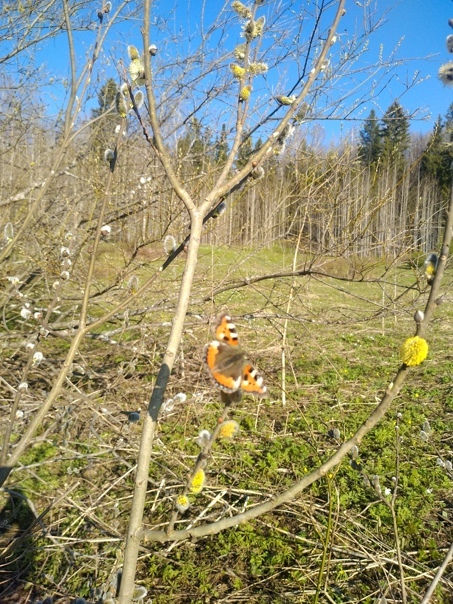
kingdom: Animalia
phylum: Arthropoda
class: Insecta
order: Lepidoptera
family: Nymphalidae
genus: Aglais
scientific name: Aglais urticae
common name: Small tortoiseshell
